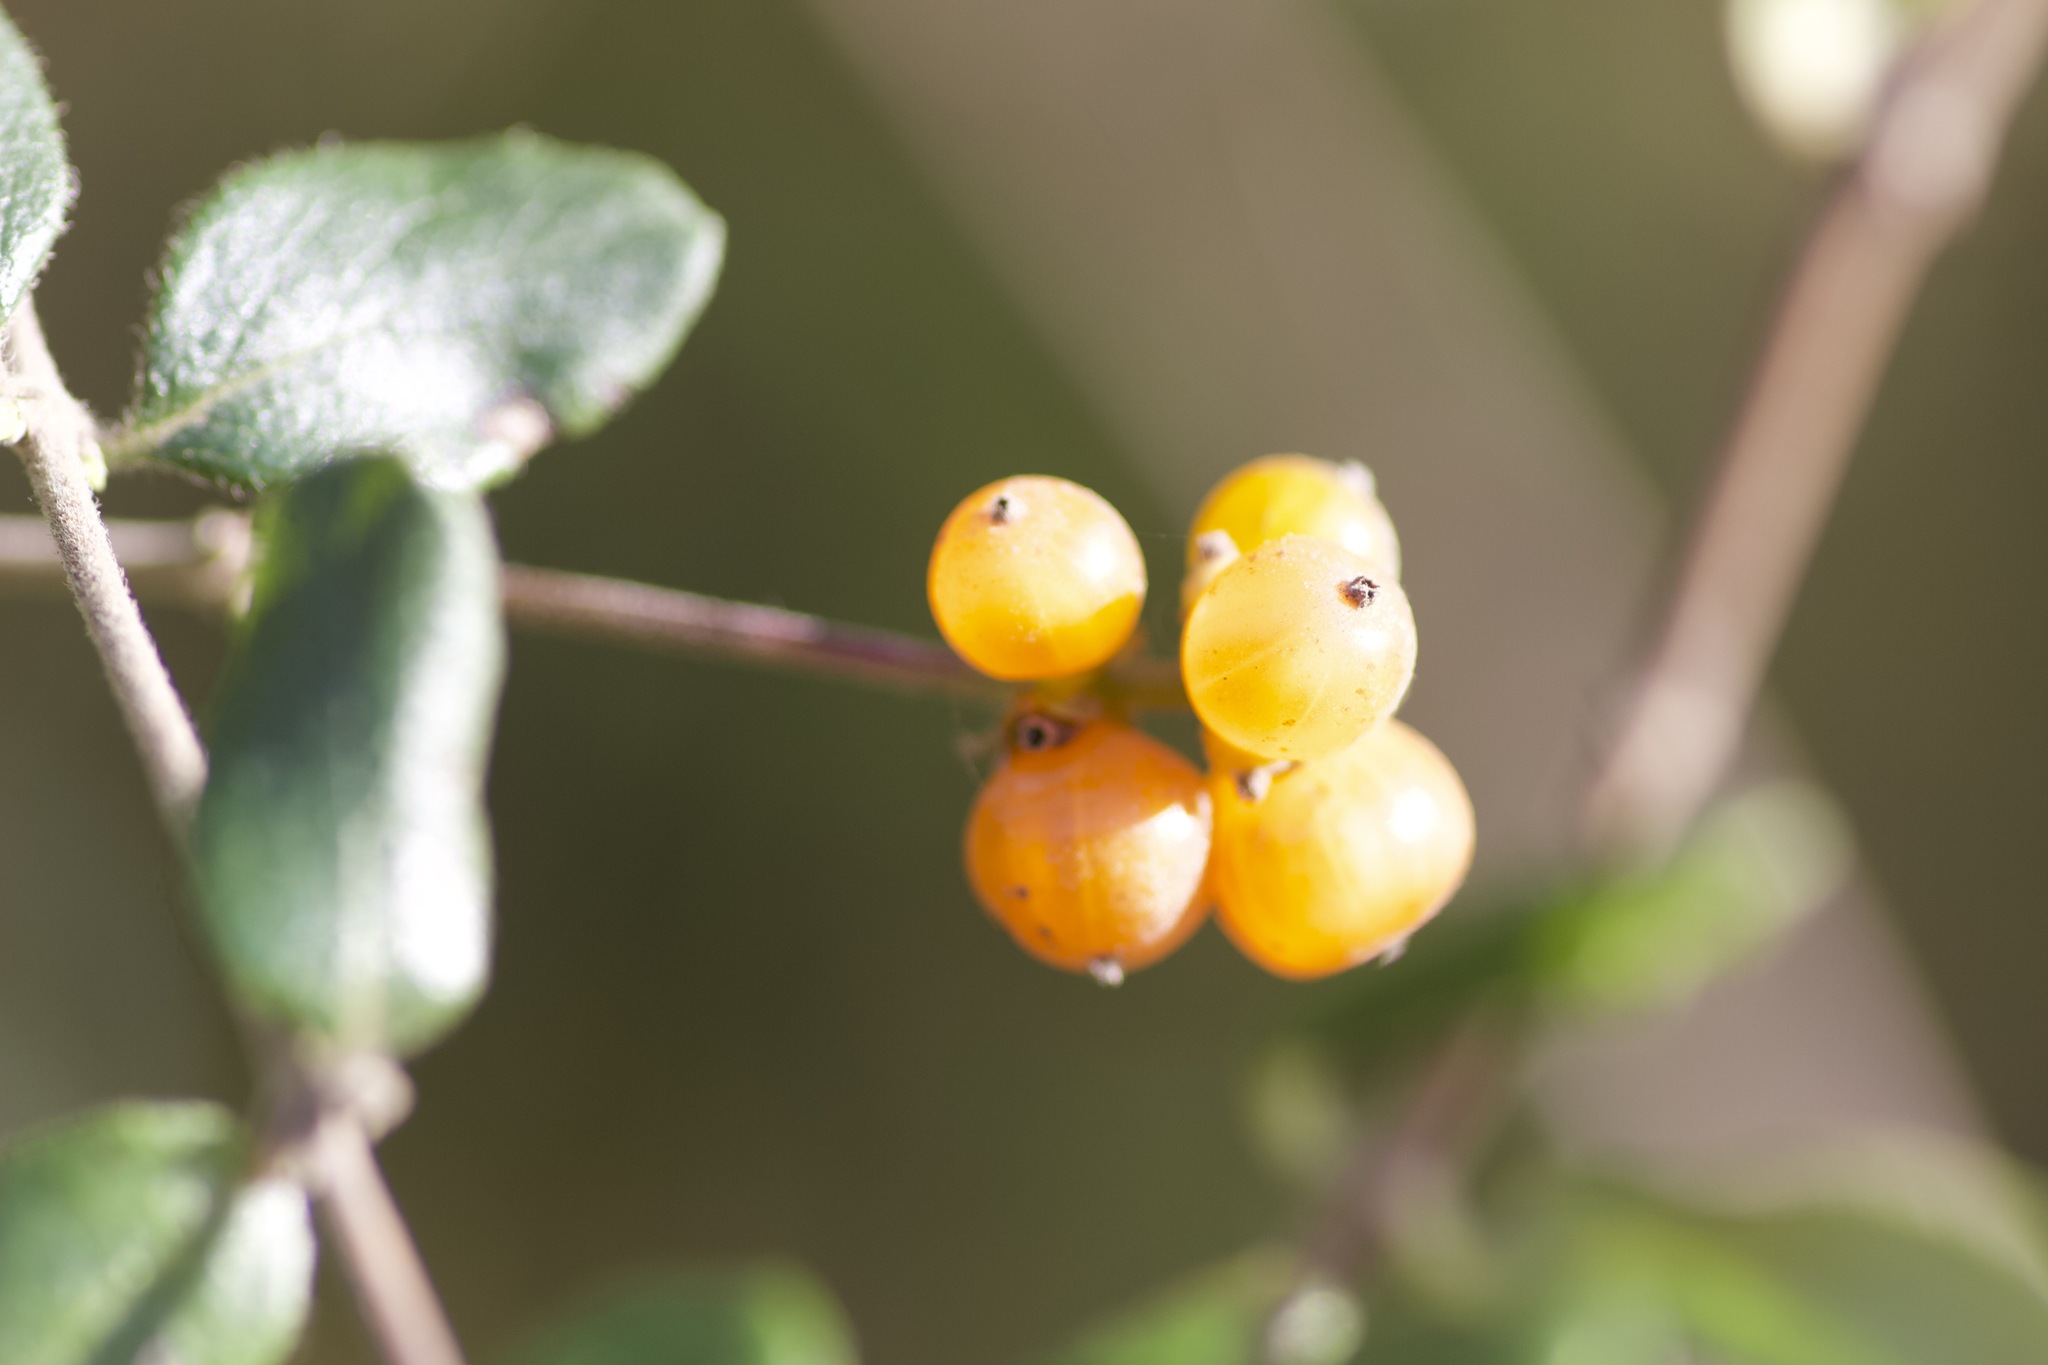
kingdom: Plantae
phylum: Tracheophyta
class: Magnoliopsida
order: Dipsacales
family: Caprifoliaceae
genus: Lonicera
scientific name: Lonicera subspicata
